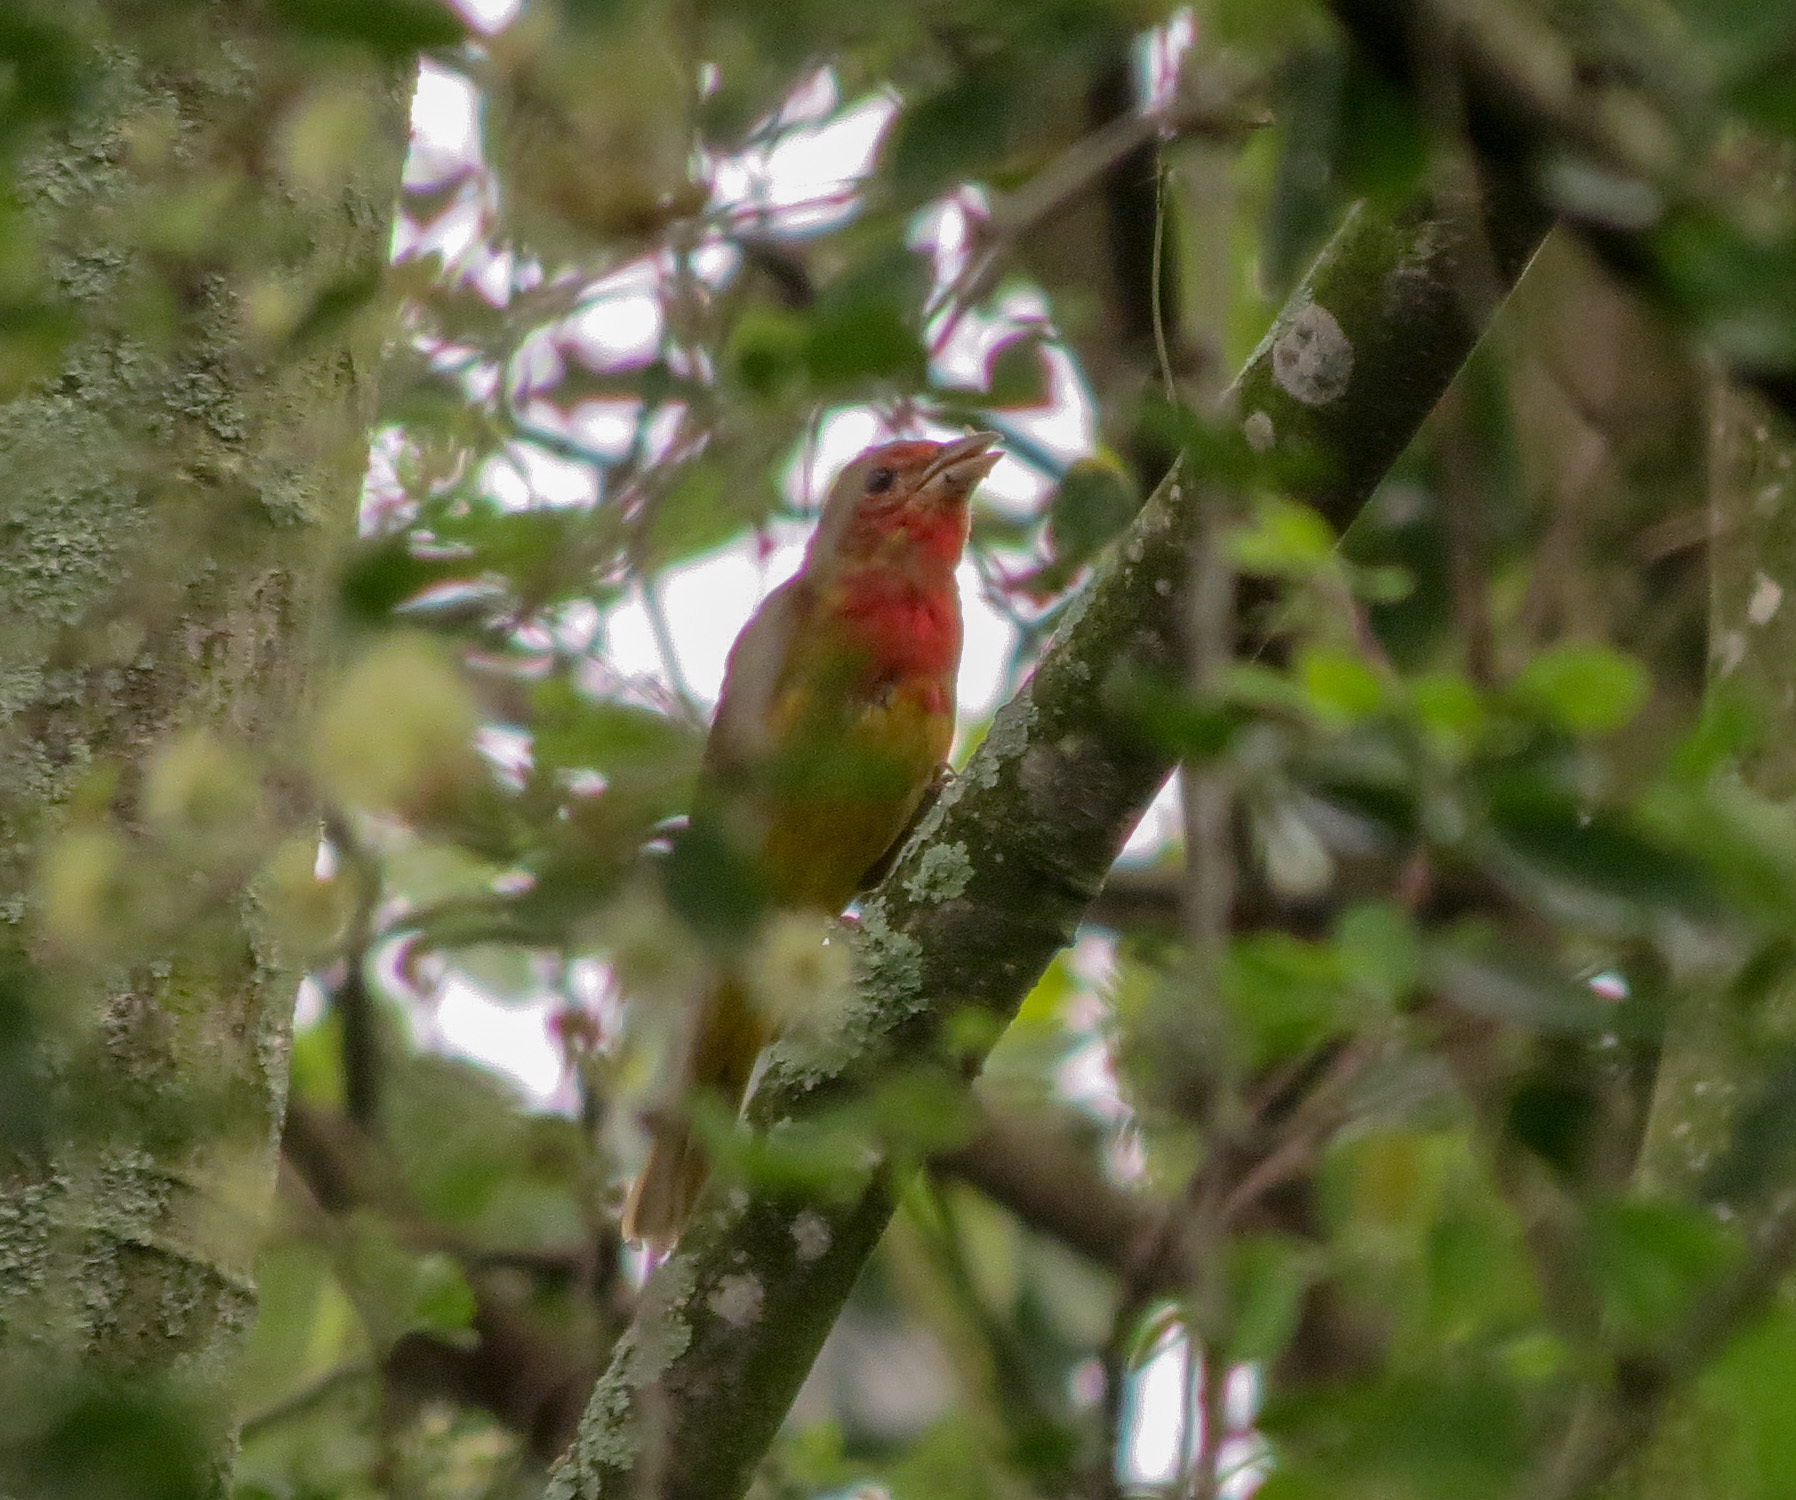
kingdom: Animalia
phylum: Chordata
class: Aves
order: Passeriformes
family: Cardinalidae
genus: Piranga
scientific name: Piranga rubra
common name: Summer tanager
